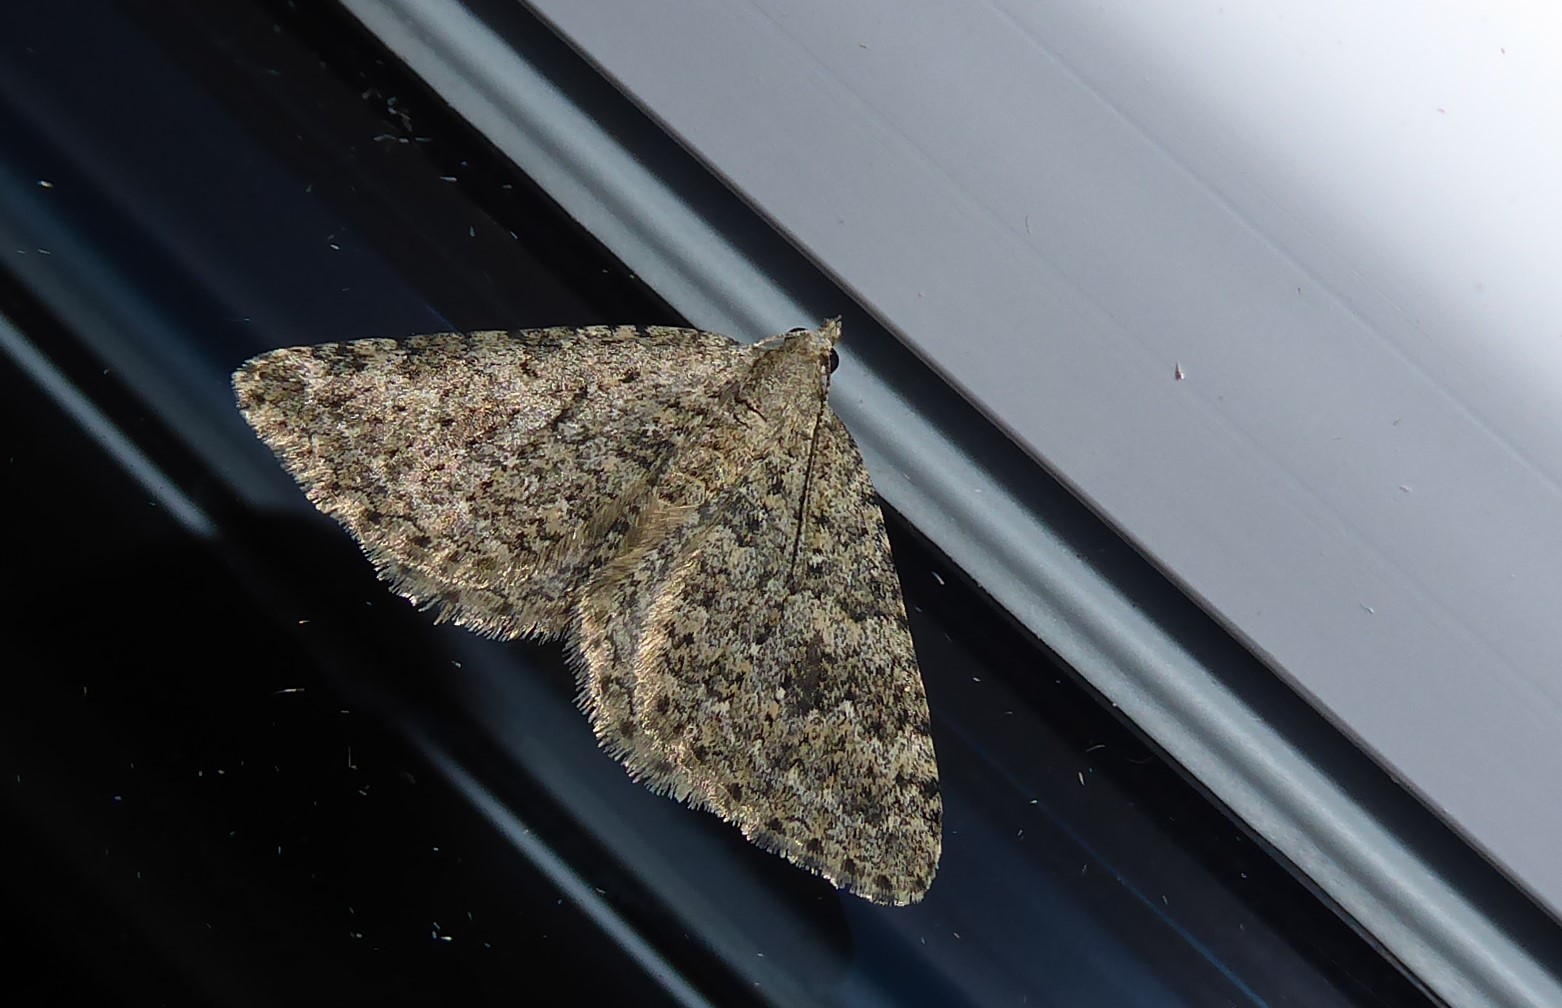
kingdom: Animalia
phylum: Arthropoda
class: Insecta
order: Lepidoptera
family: Geometridae
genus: Helastia
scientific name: Helastia corcularia
